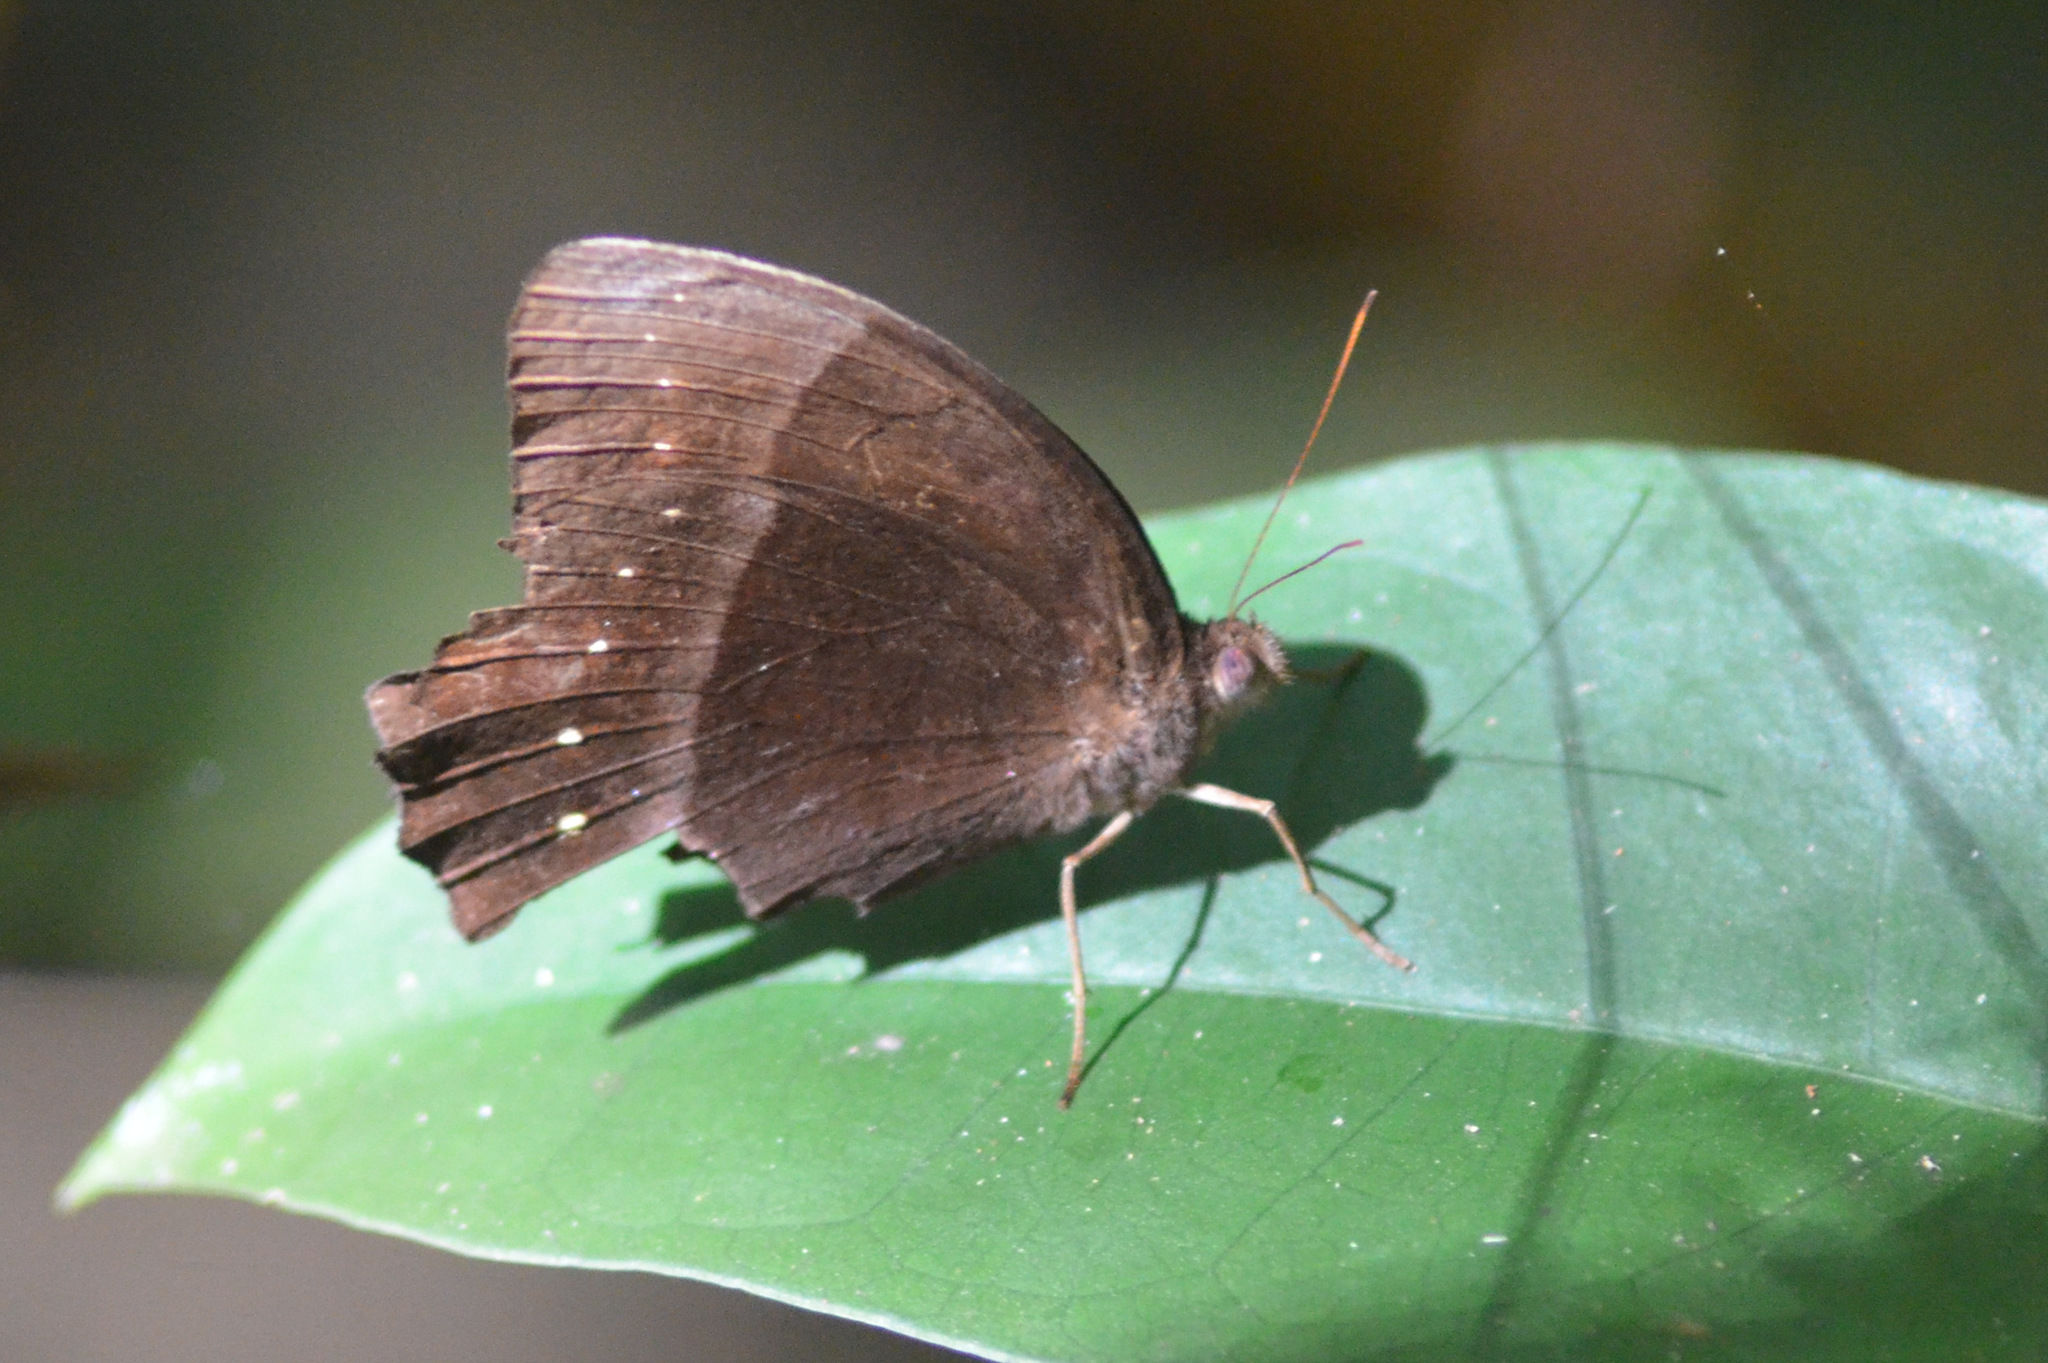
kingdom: Animalia
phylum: Arthropoda
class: Insecta
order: Lepidoptera
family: Nymphalidae
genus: Taygetis
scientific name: Taygetis echo
